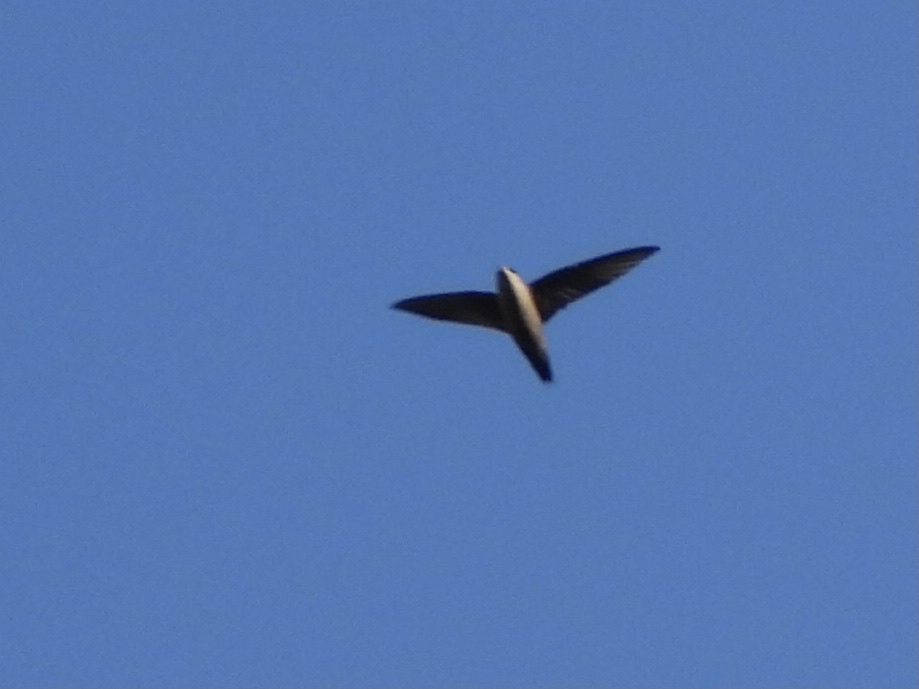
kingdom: Animalia
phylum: Chordata
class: Aves
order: Apodiformes
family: Apodidae
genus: Chaetura
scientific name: Chaetura vauxi
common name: Vaux's swift
